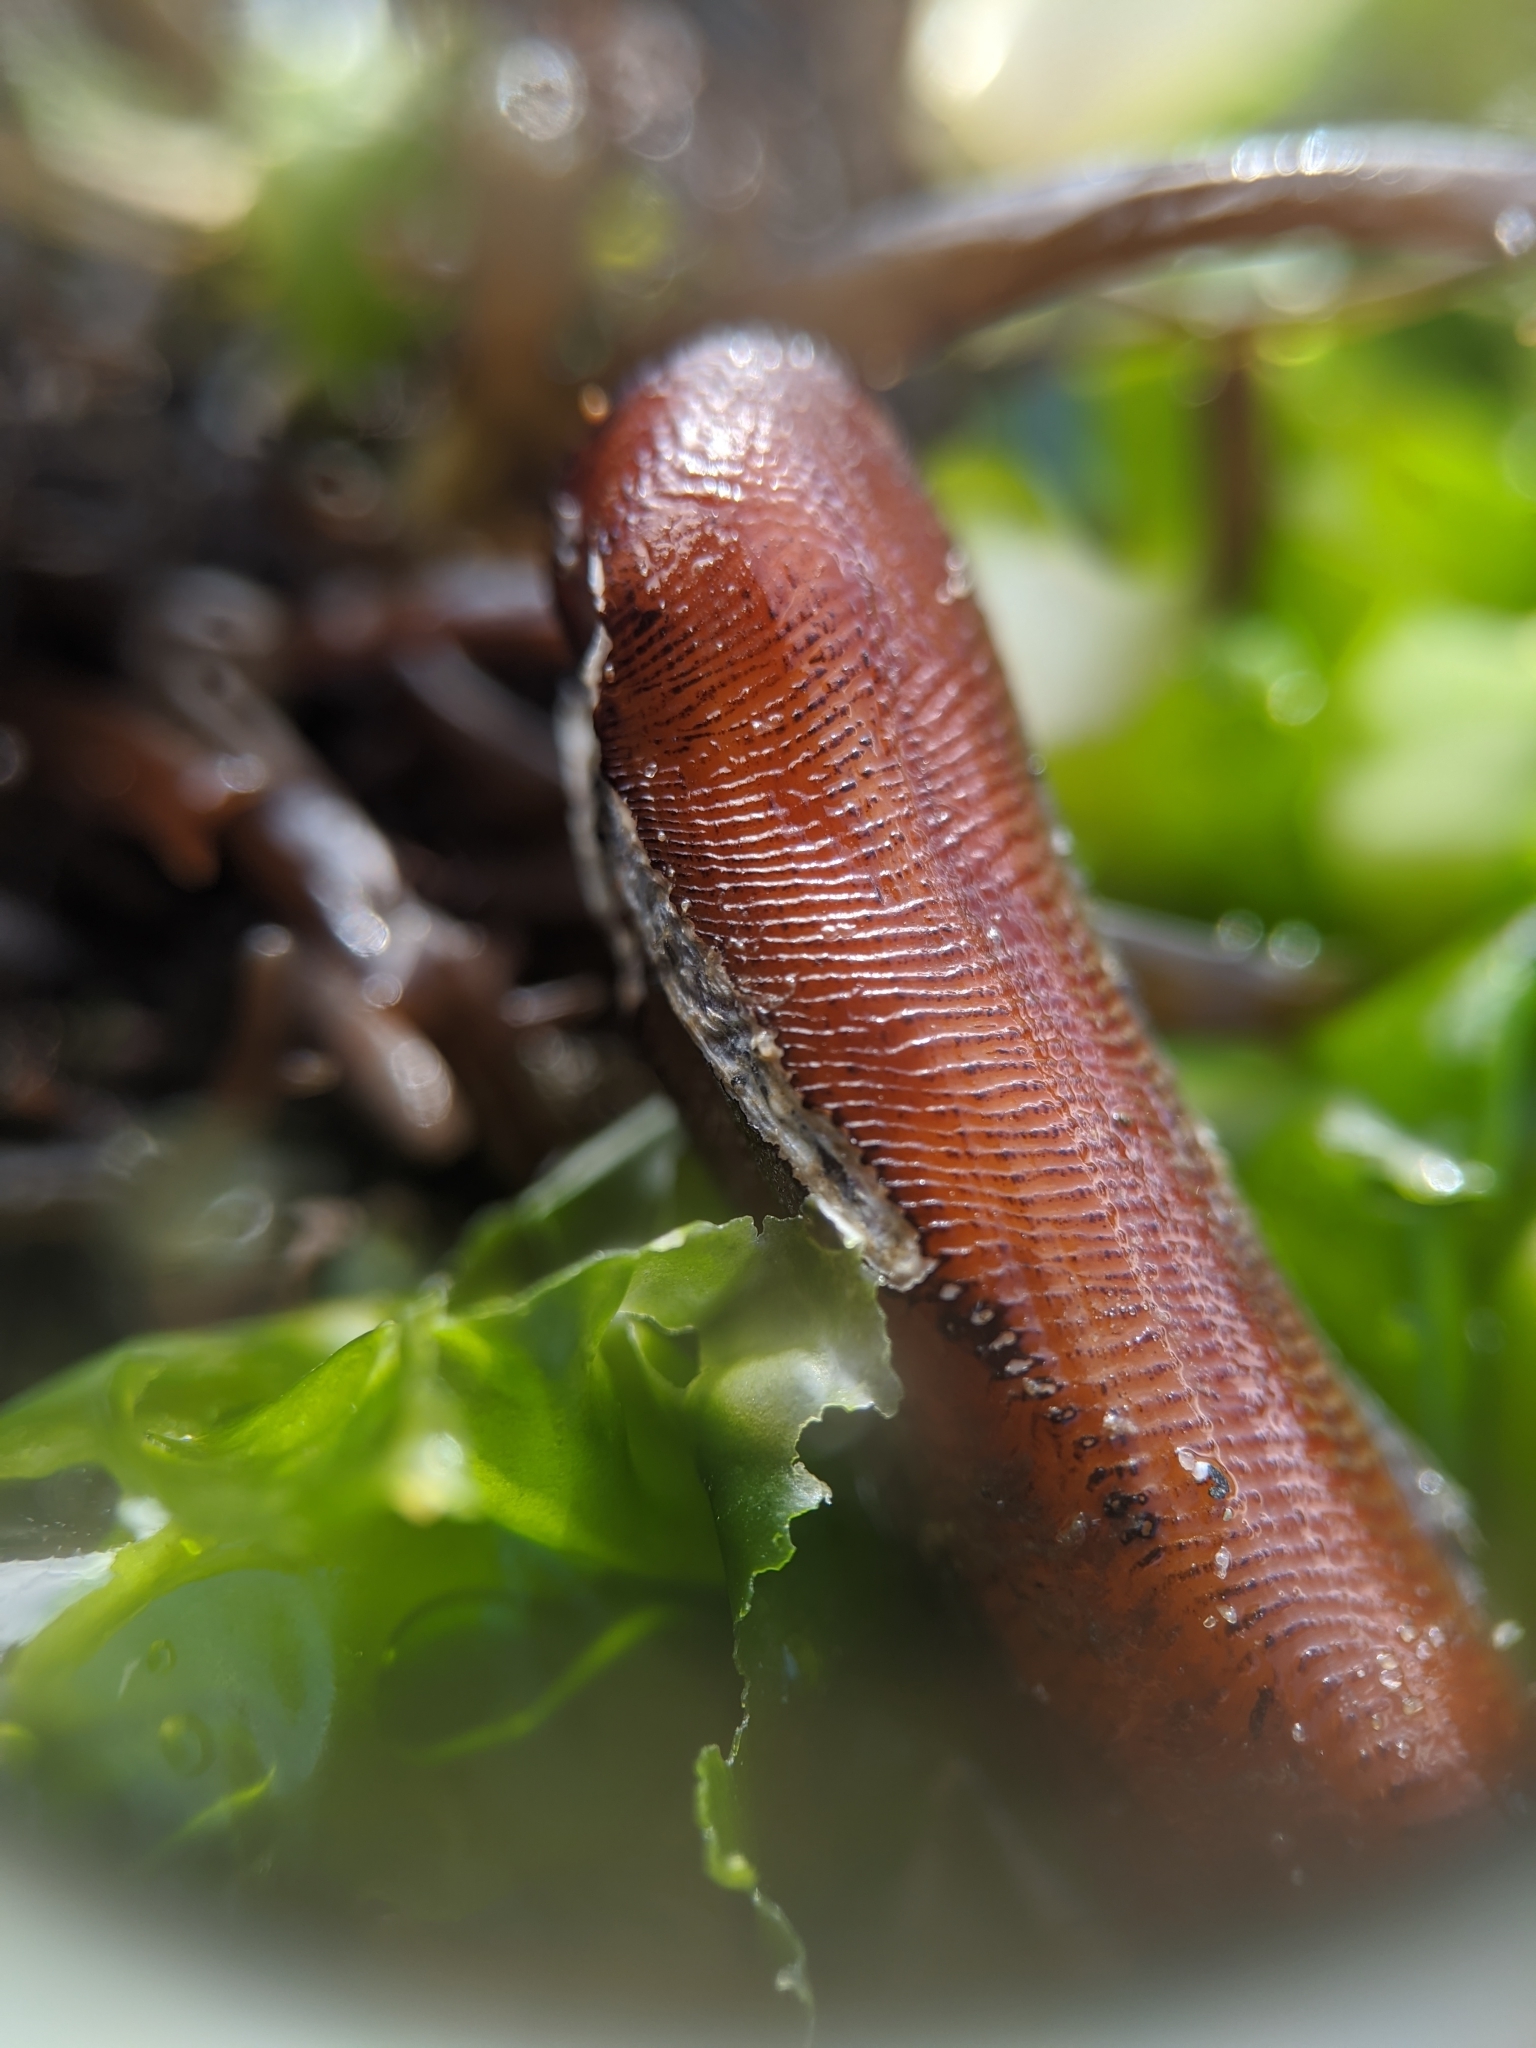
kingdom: Animalia
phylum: Mollusca
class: Bivalvia
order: Mytilida
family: Mytilidae
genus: Adula
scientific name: Adula gruneri
